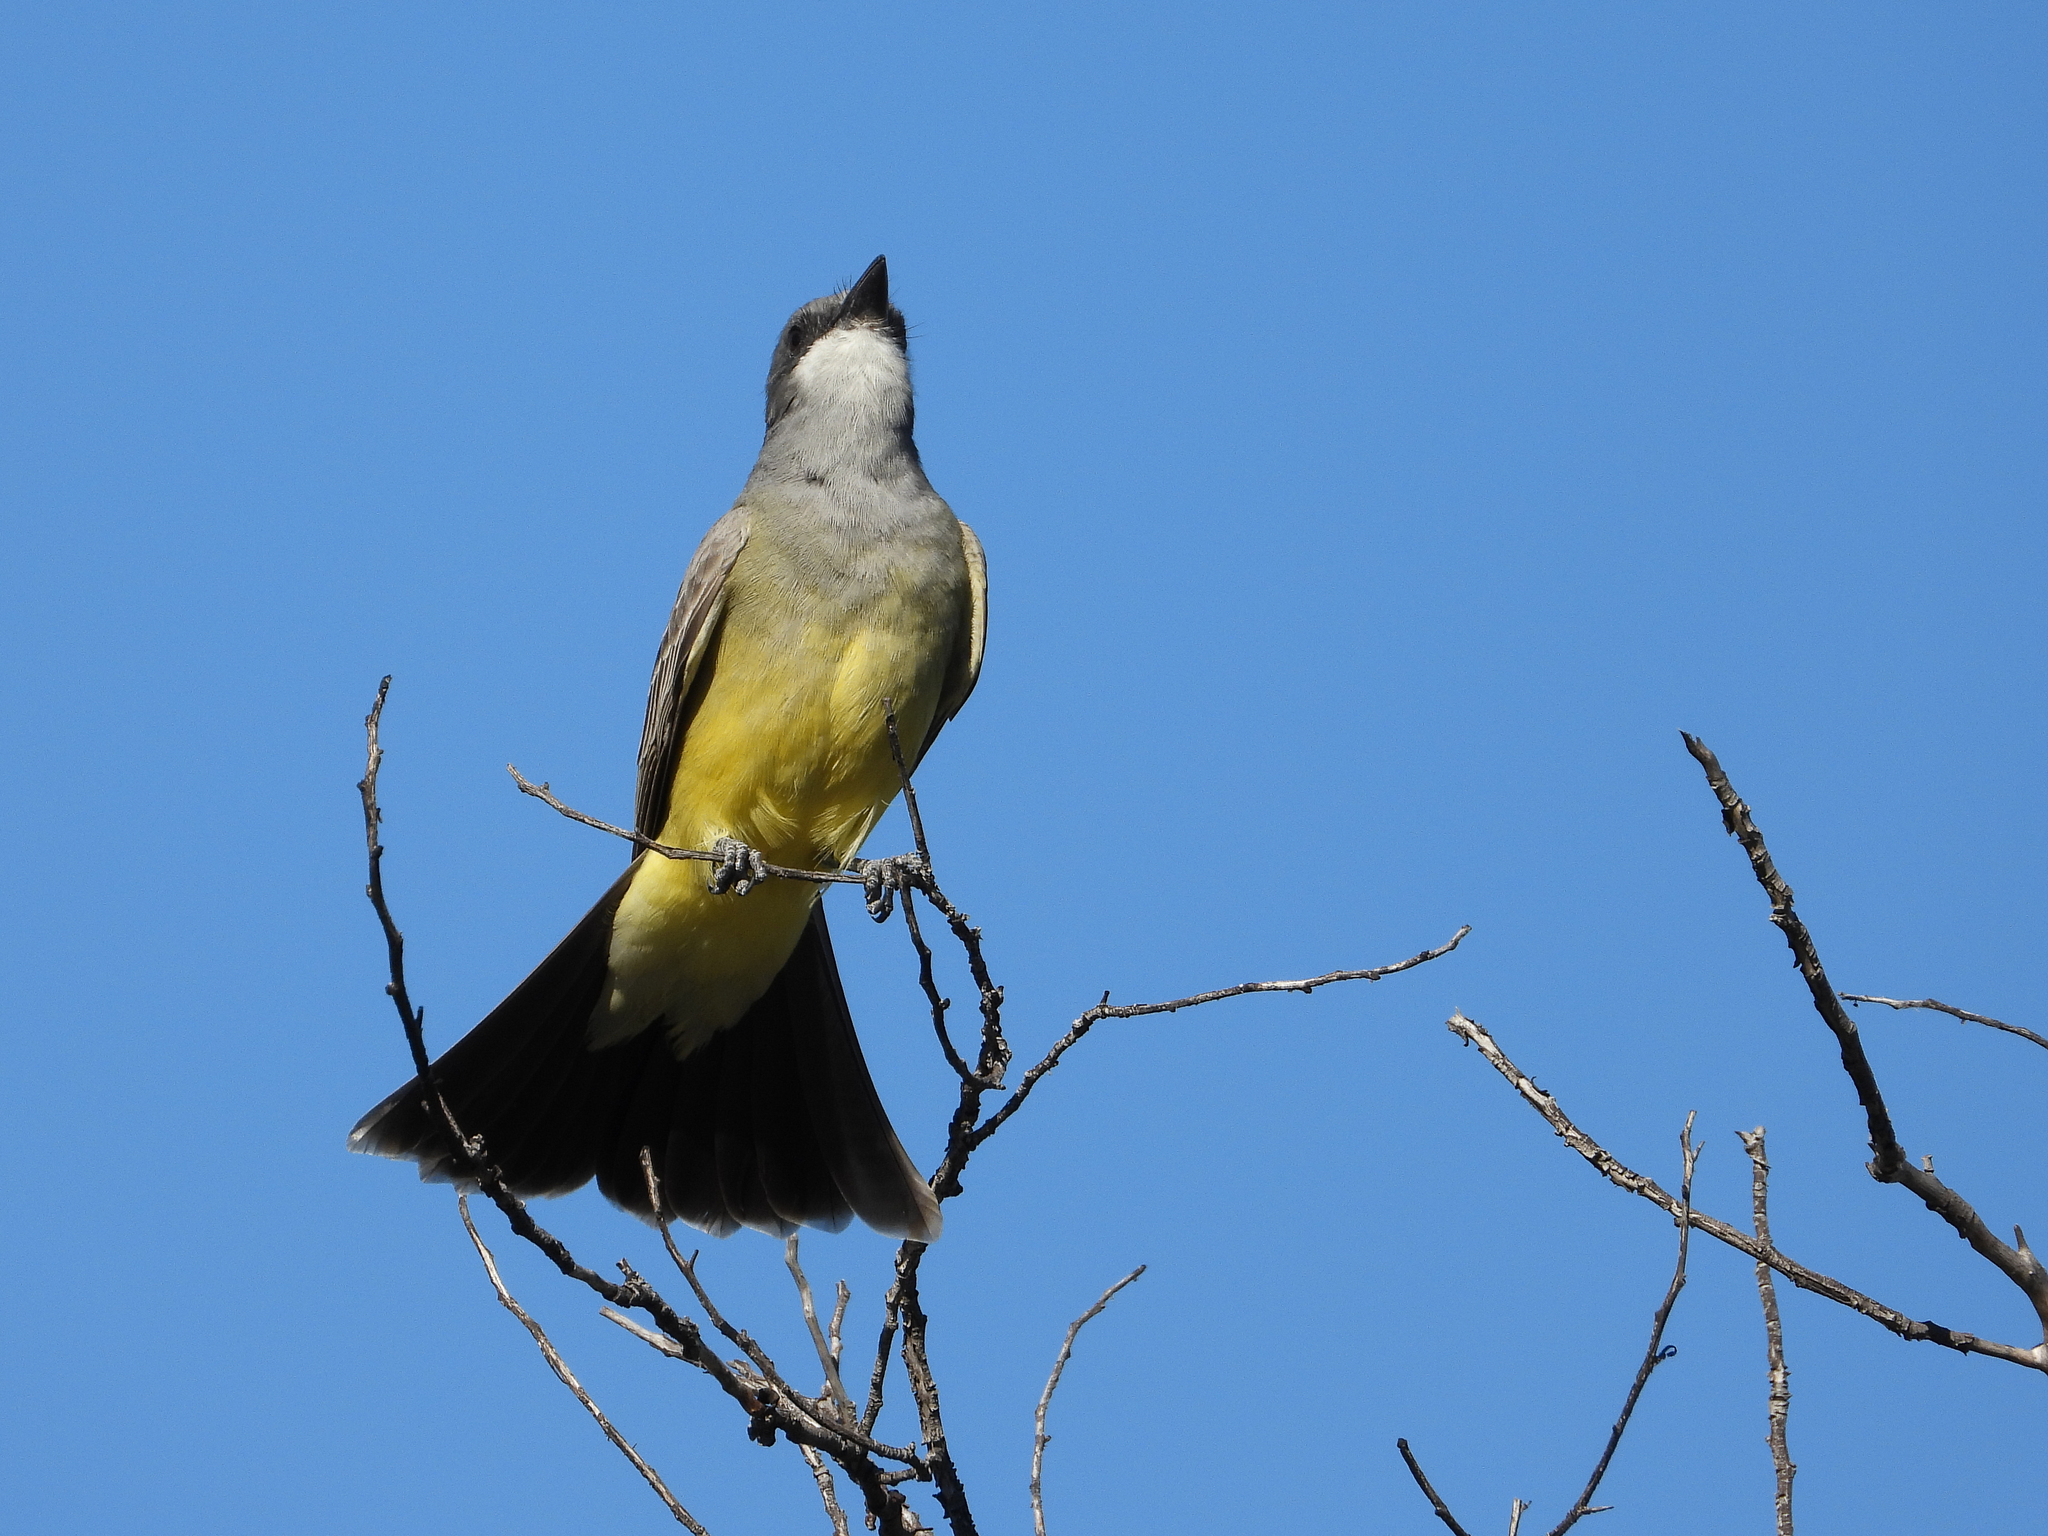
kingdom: Animalia
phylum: Chordata
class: Aves
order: Passeriformes
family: Tyrannidae
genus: Tyrannus
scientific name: Tyrannus vociferans
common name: Cassin's kingbird
